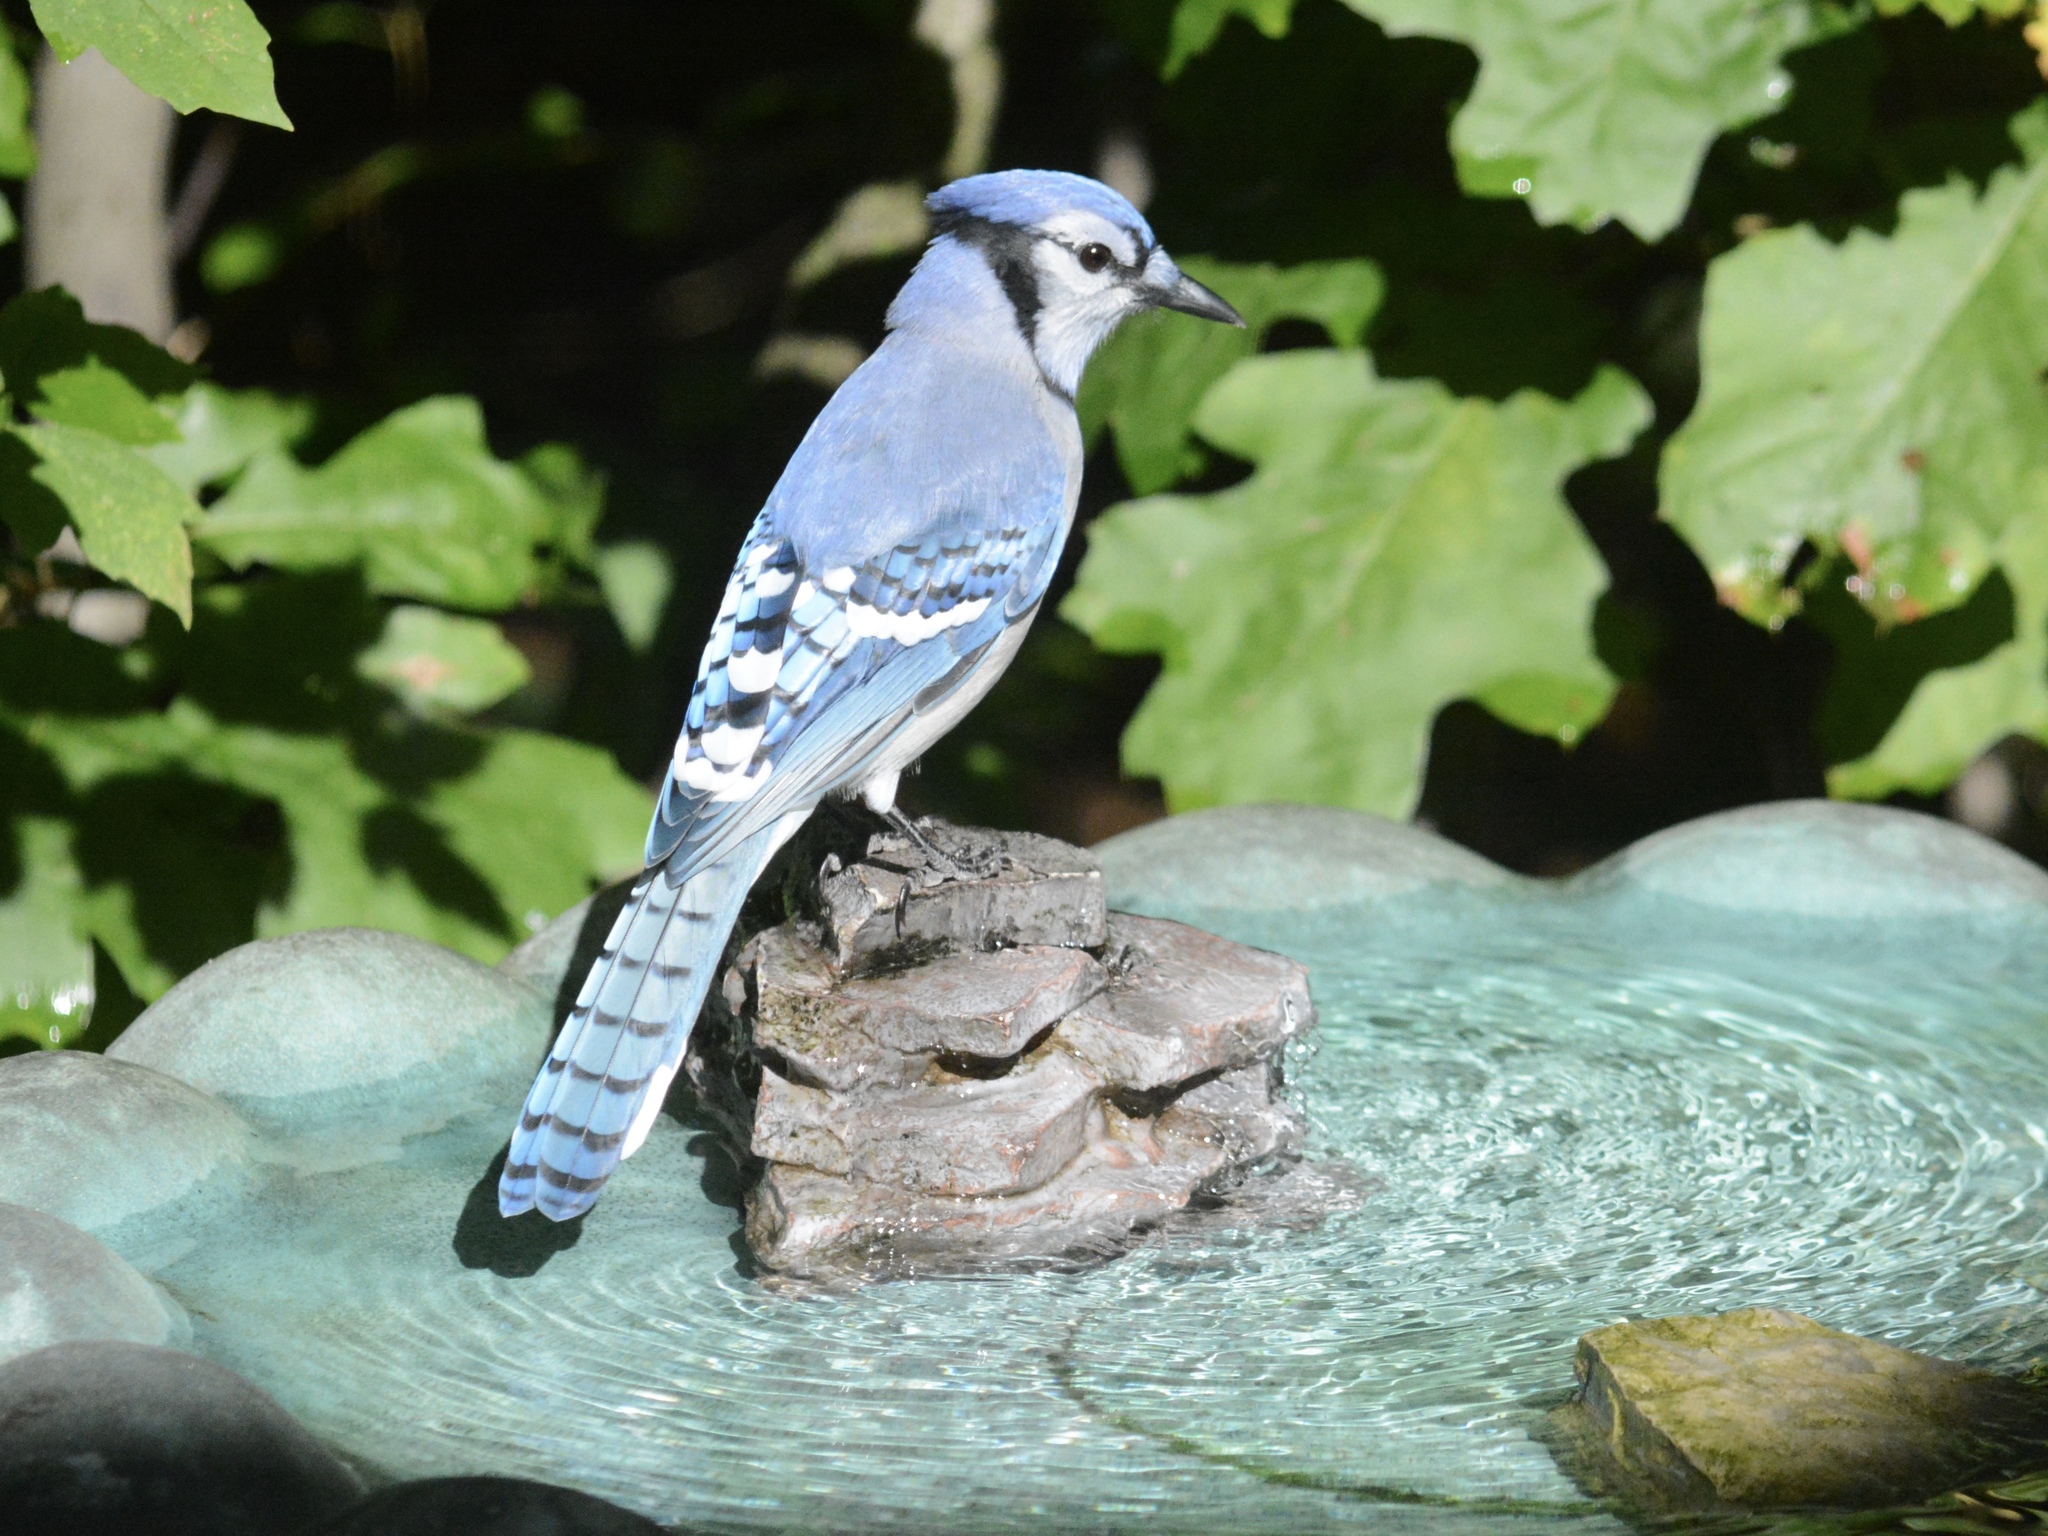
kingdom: Animalia
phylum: Chordata
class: Aves
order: Passeriformes
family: Corvidae
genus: Cyanocitta
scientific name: Cyanocitta cristata
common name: Blue jay
